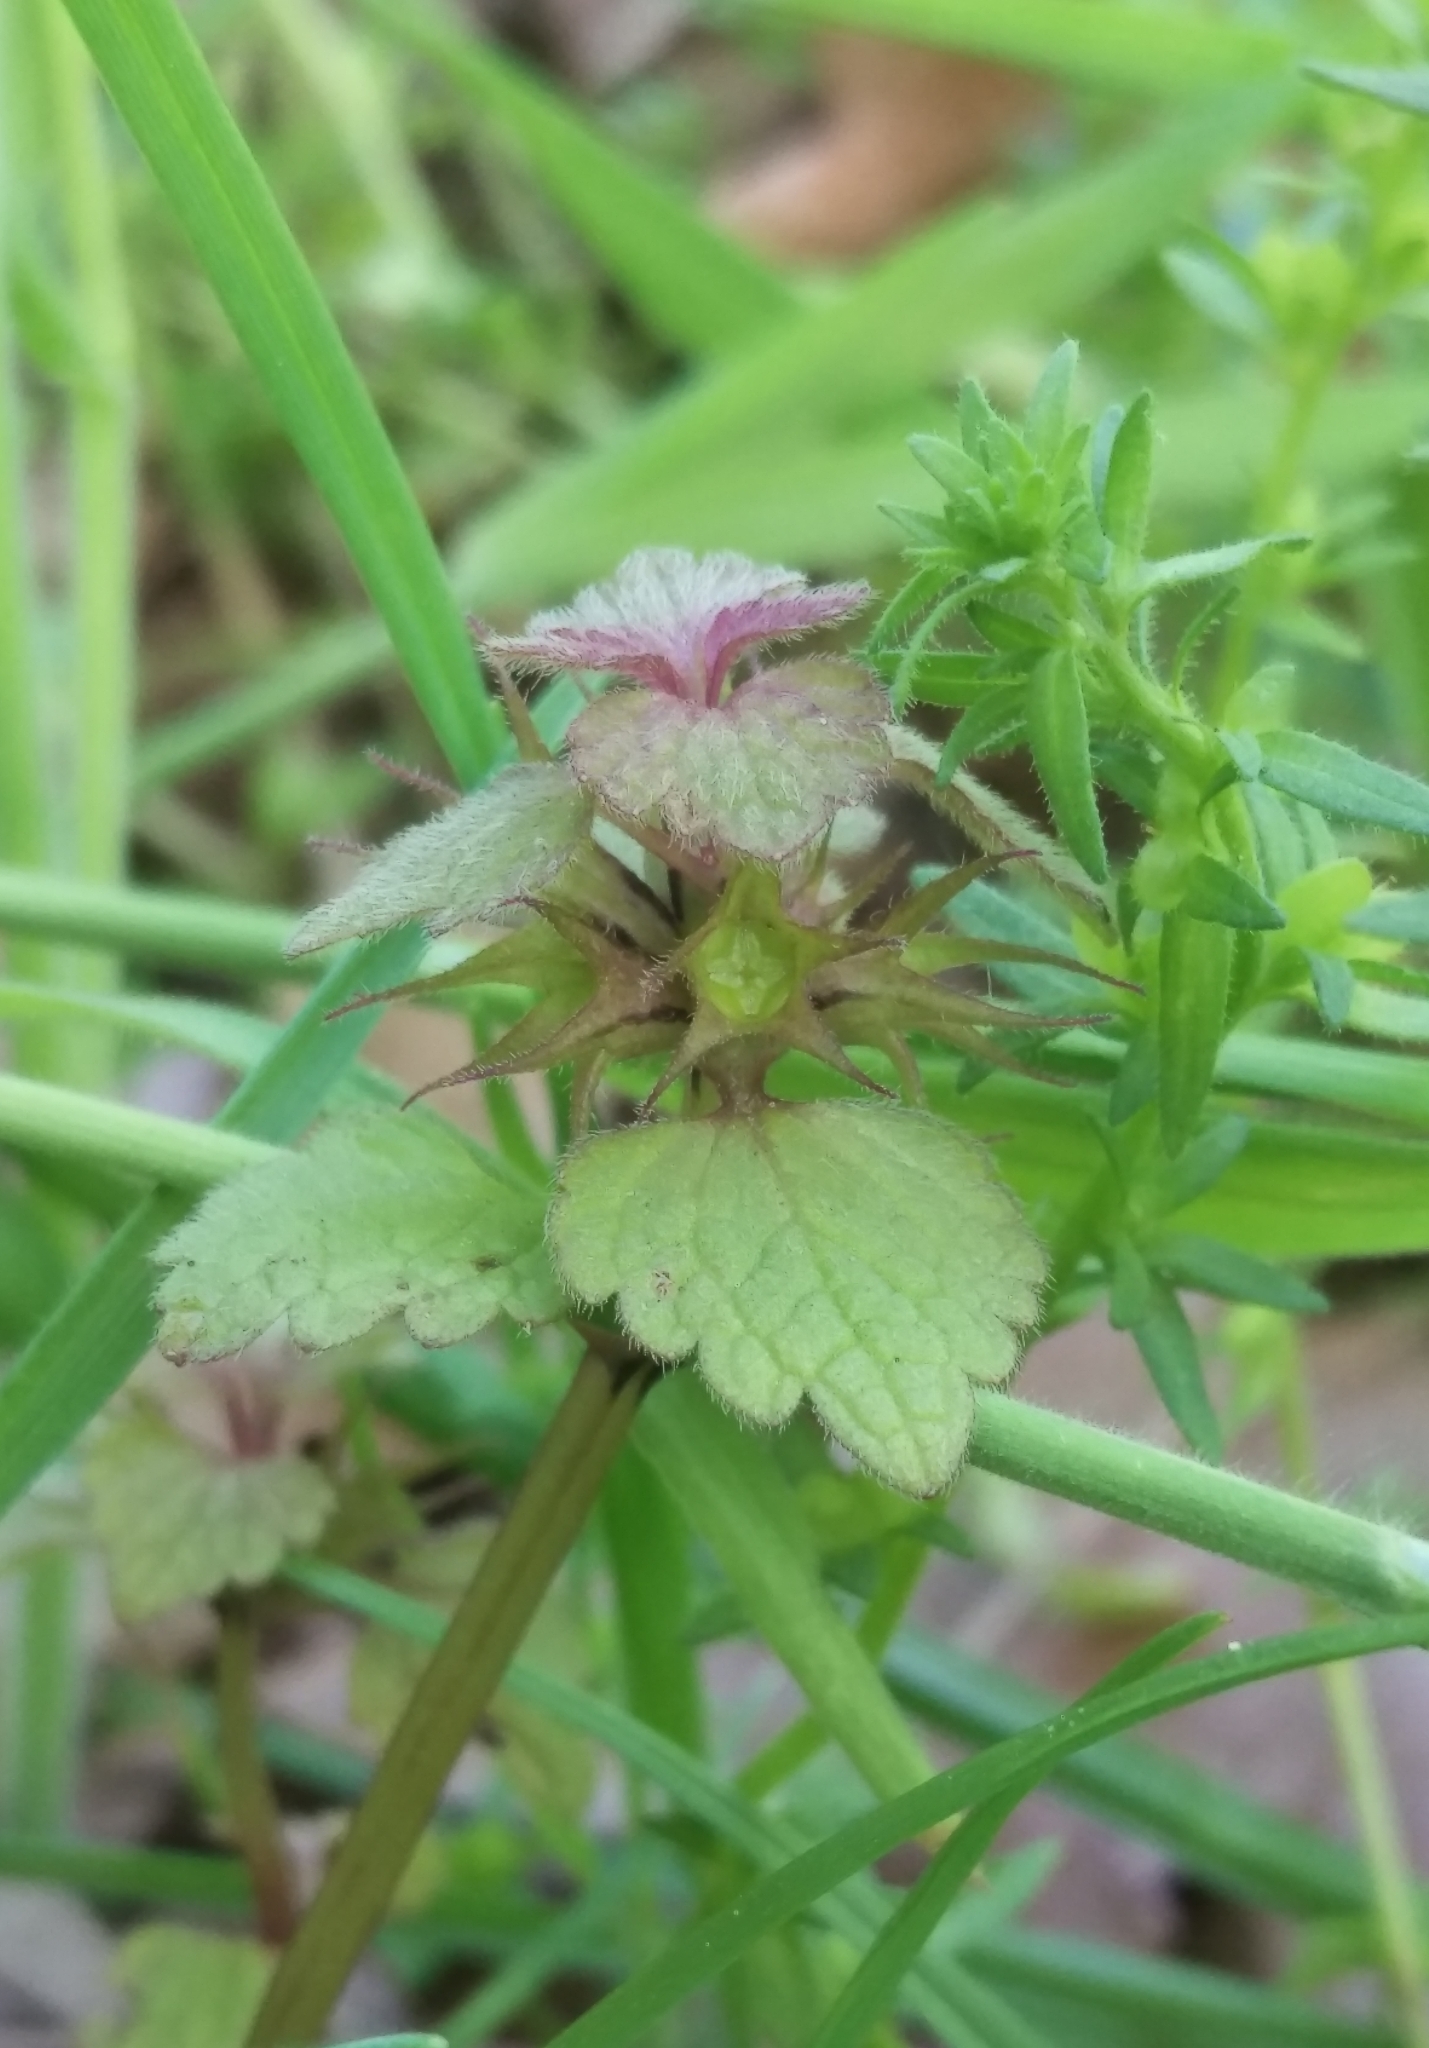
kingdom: Plantae
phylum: Tracheophyta
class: Magnoliopsida
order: Lamiales
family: Lamiaceae
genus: Lamium
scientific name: Lamium purpureum
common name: Red dead-nettle
